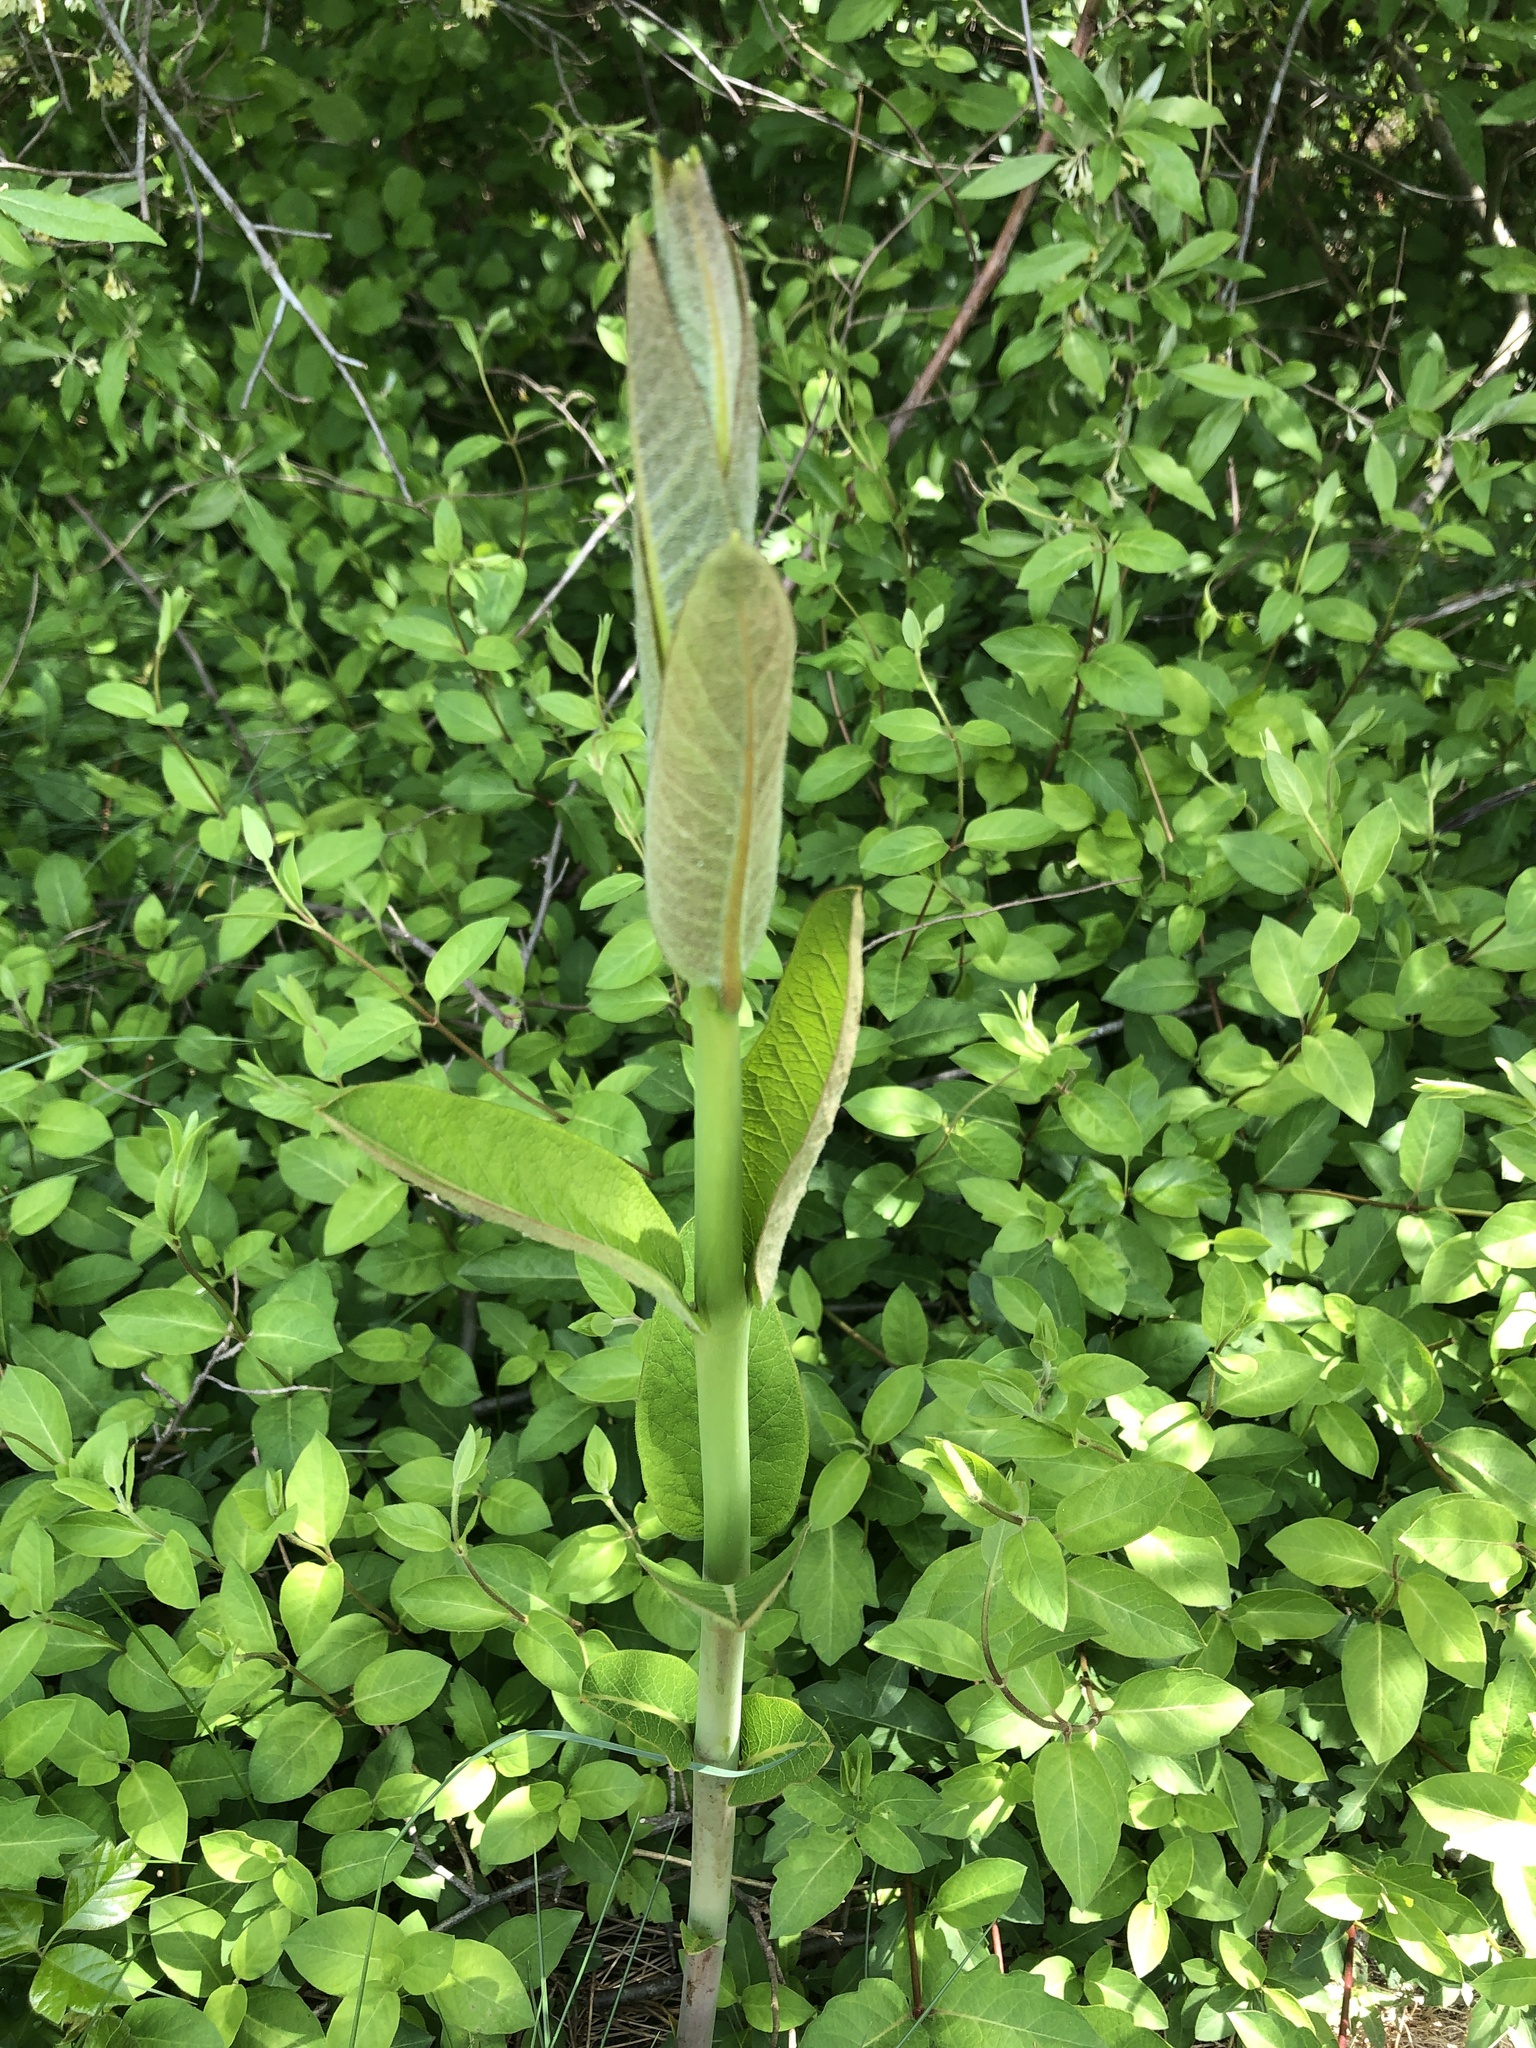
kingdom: Plantae
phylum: Tracheophyta
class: Magnoliopsida
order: Gentianales
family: Apocynaceae
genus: Asclepias
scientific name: Asclepias syriaca
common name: Common milkweed
